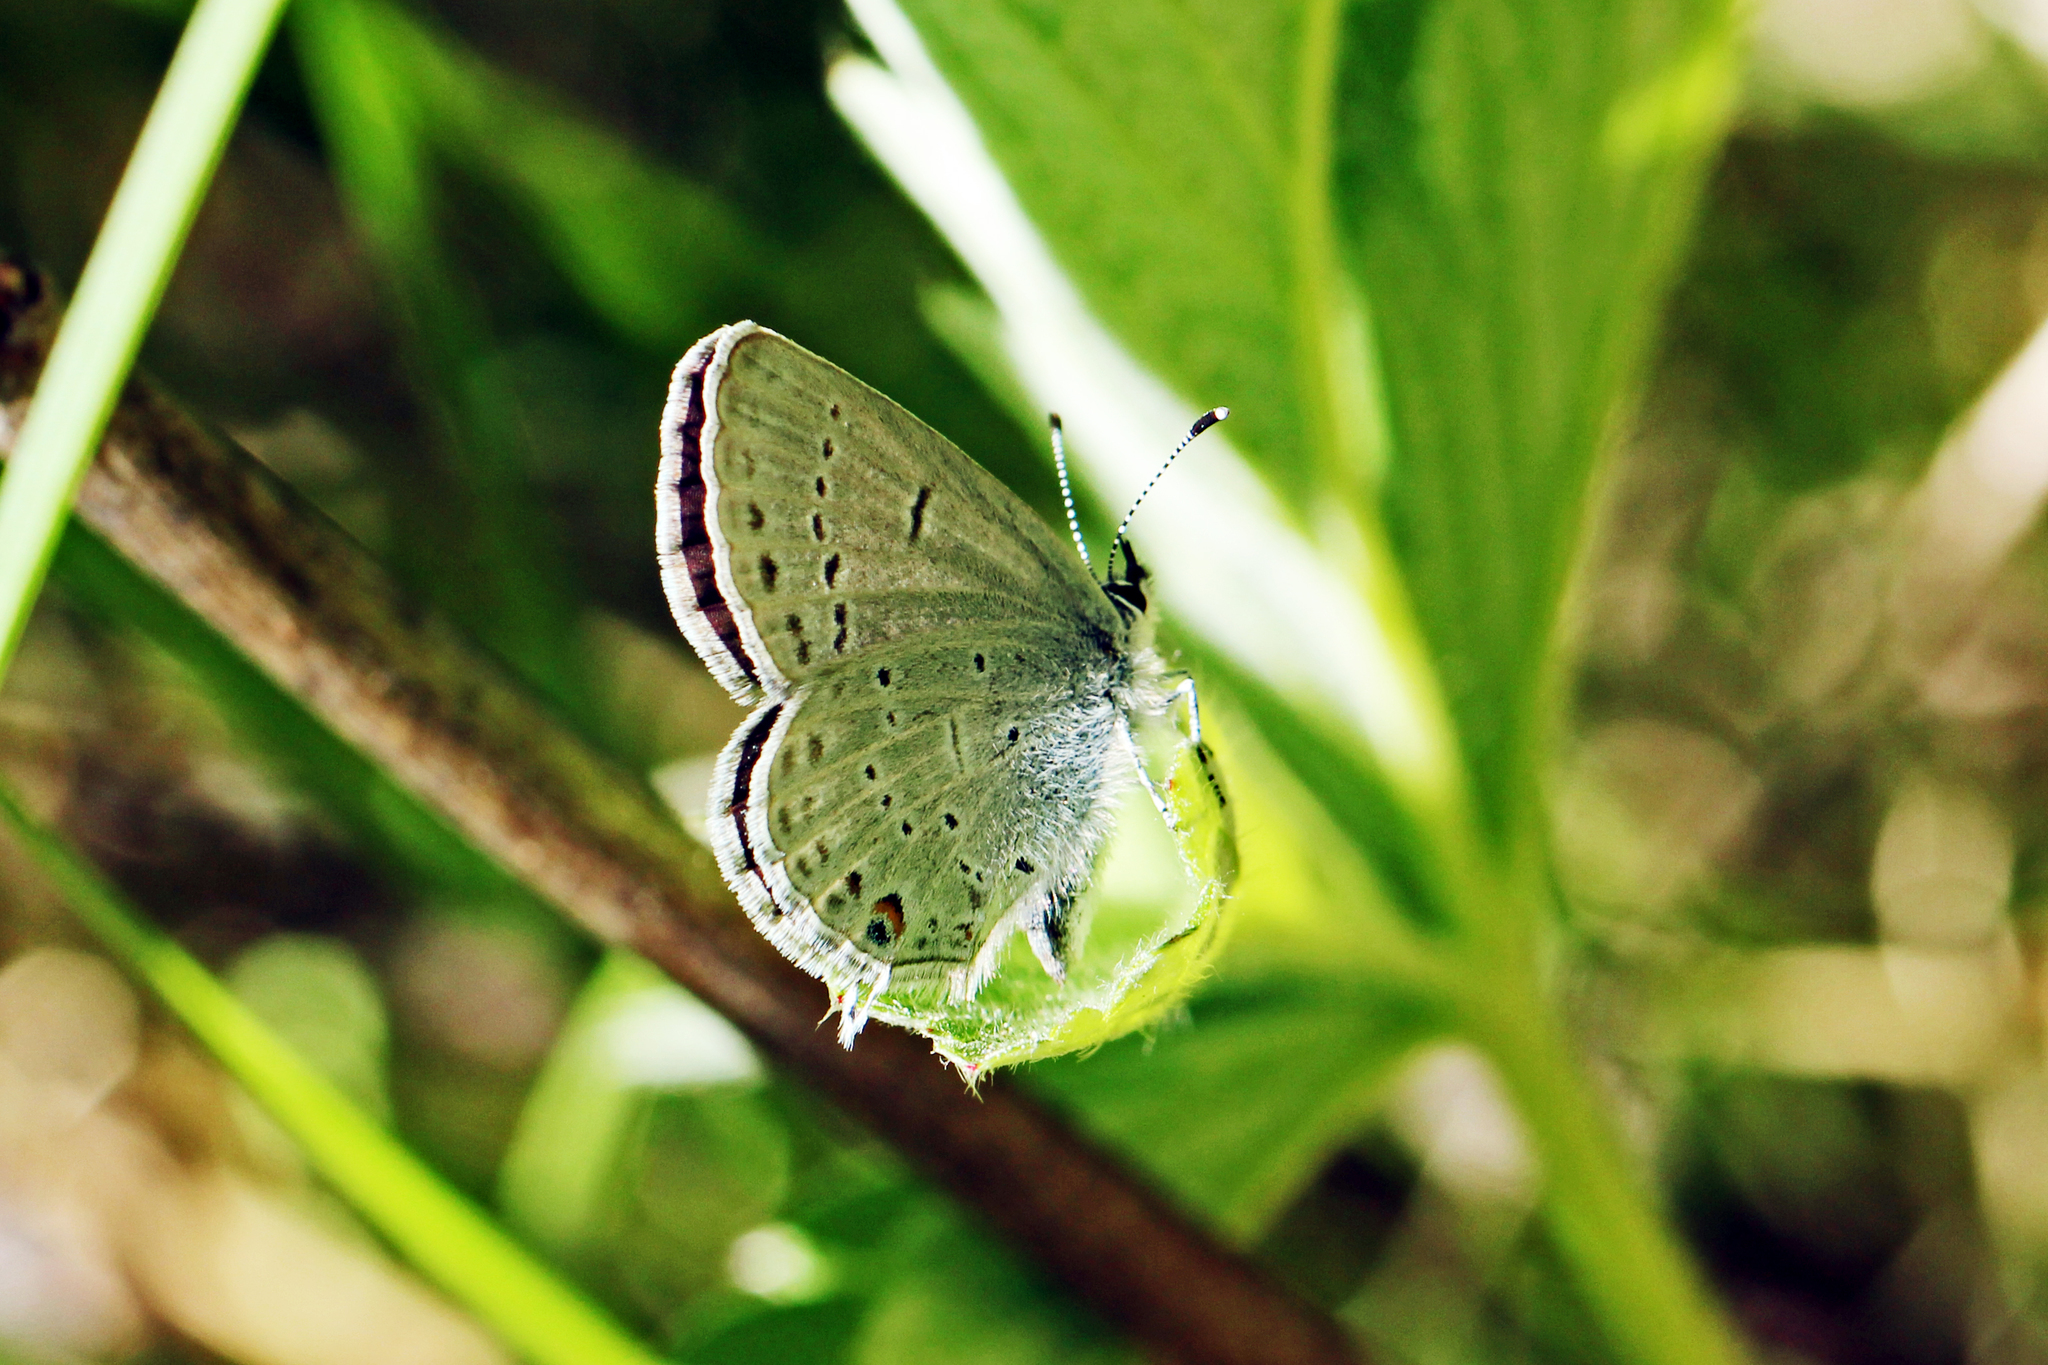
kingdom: Animalia
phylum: Arthropoda
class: Insecta
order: Lepidoptera
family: Lycaenidae
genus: Elkalyce
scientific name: Elkalyce amyntula
